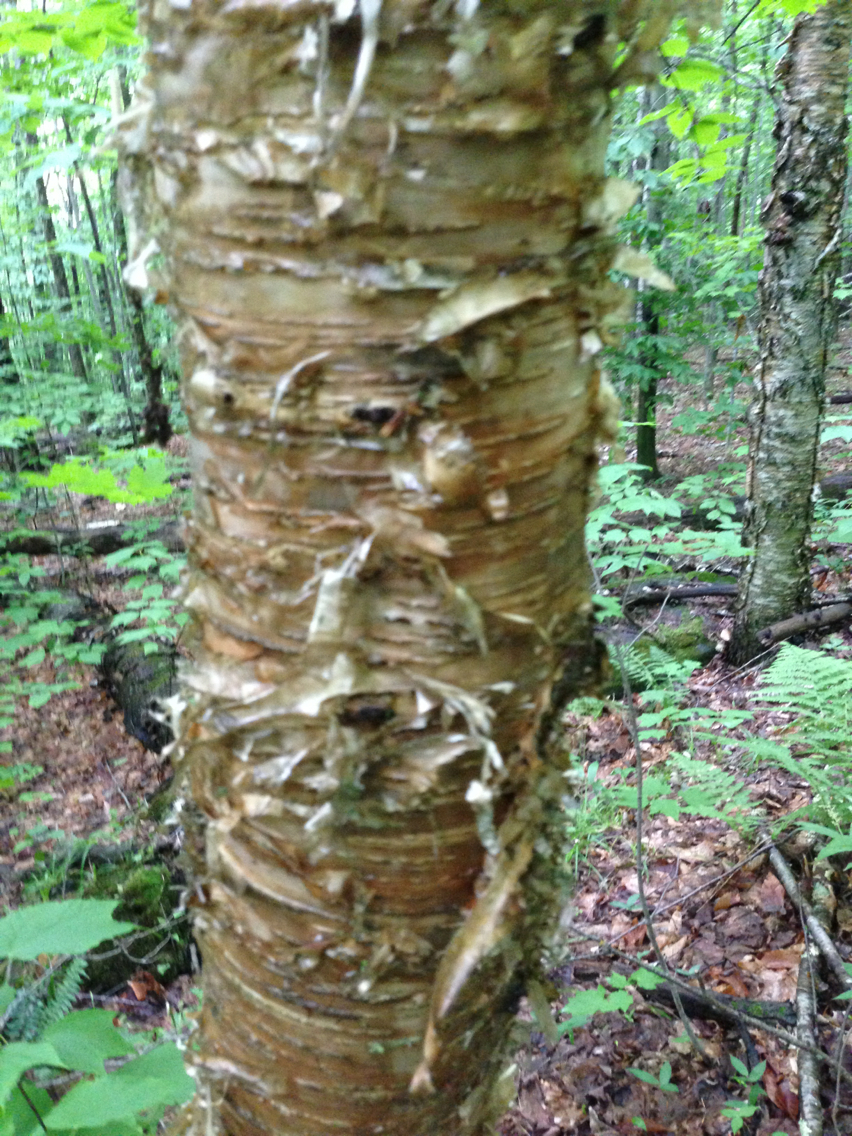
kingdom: Plantae
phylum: Tracheophyta
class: Magnoliopsida
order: Fagales
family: Betulaceae
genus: Betula
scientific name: Betula alleghaniensis
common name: Yellow birch
